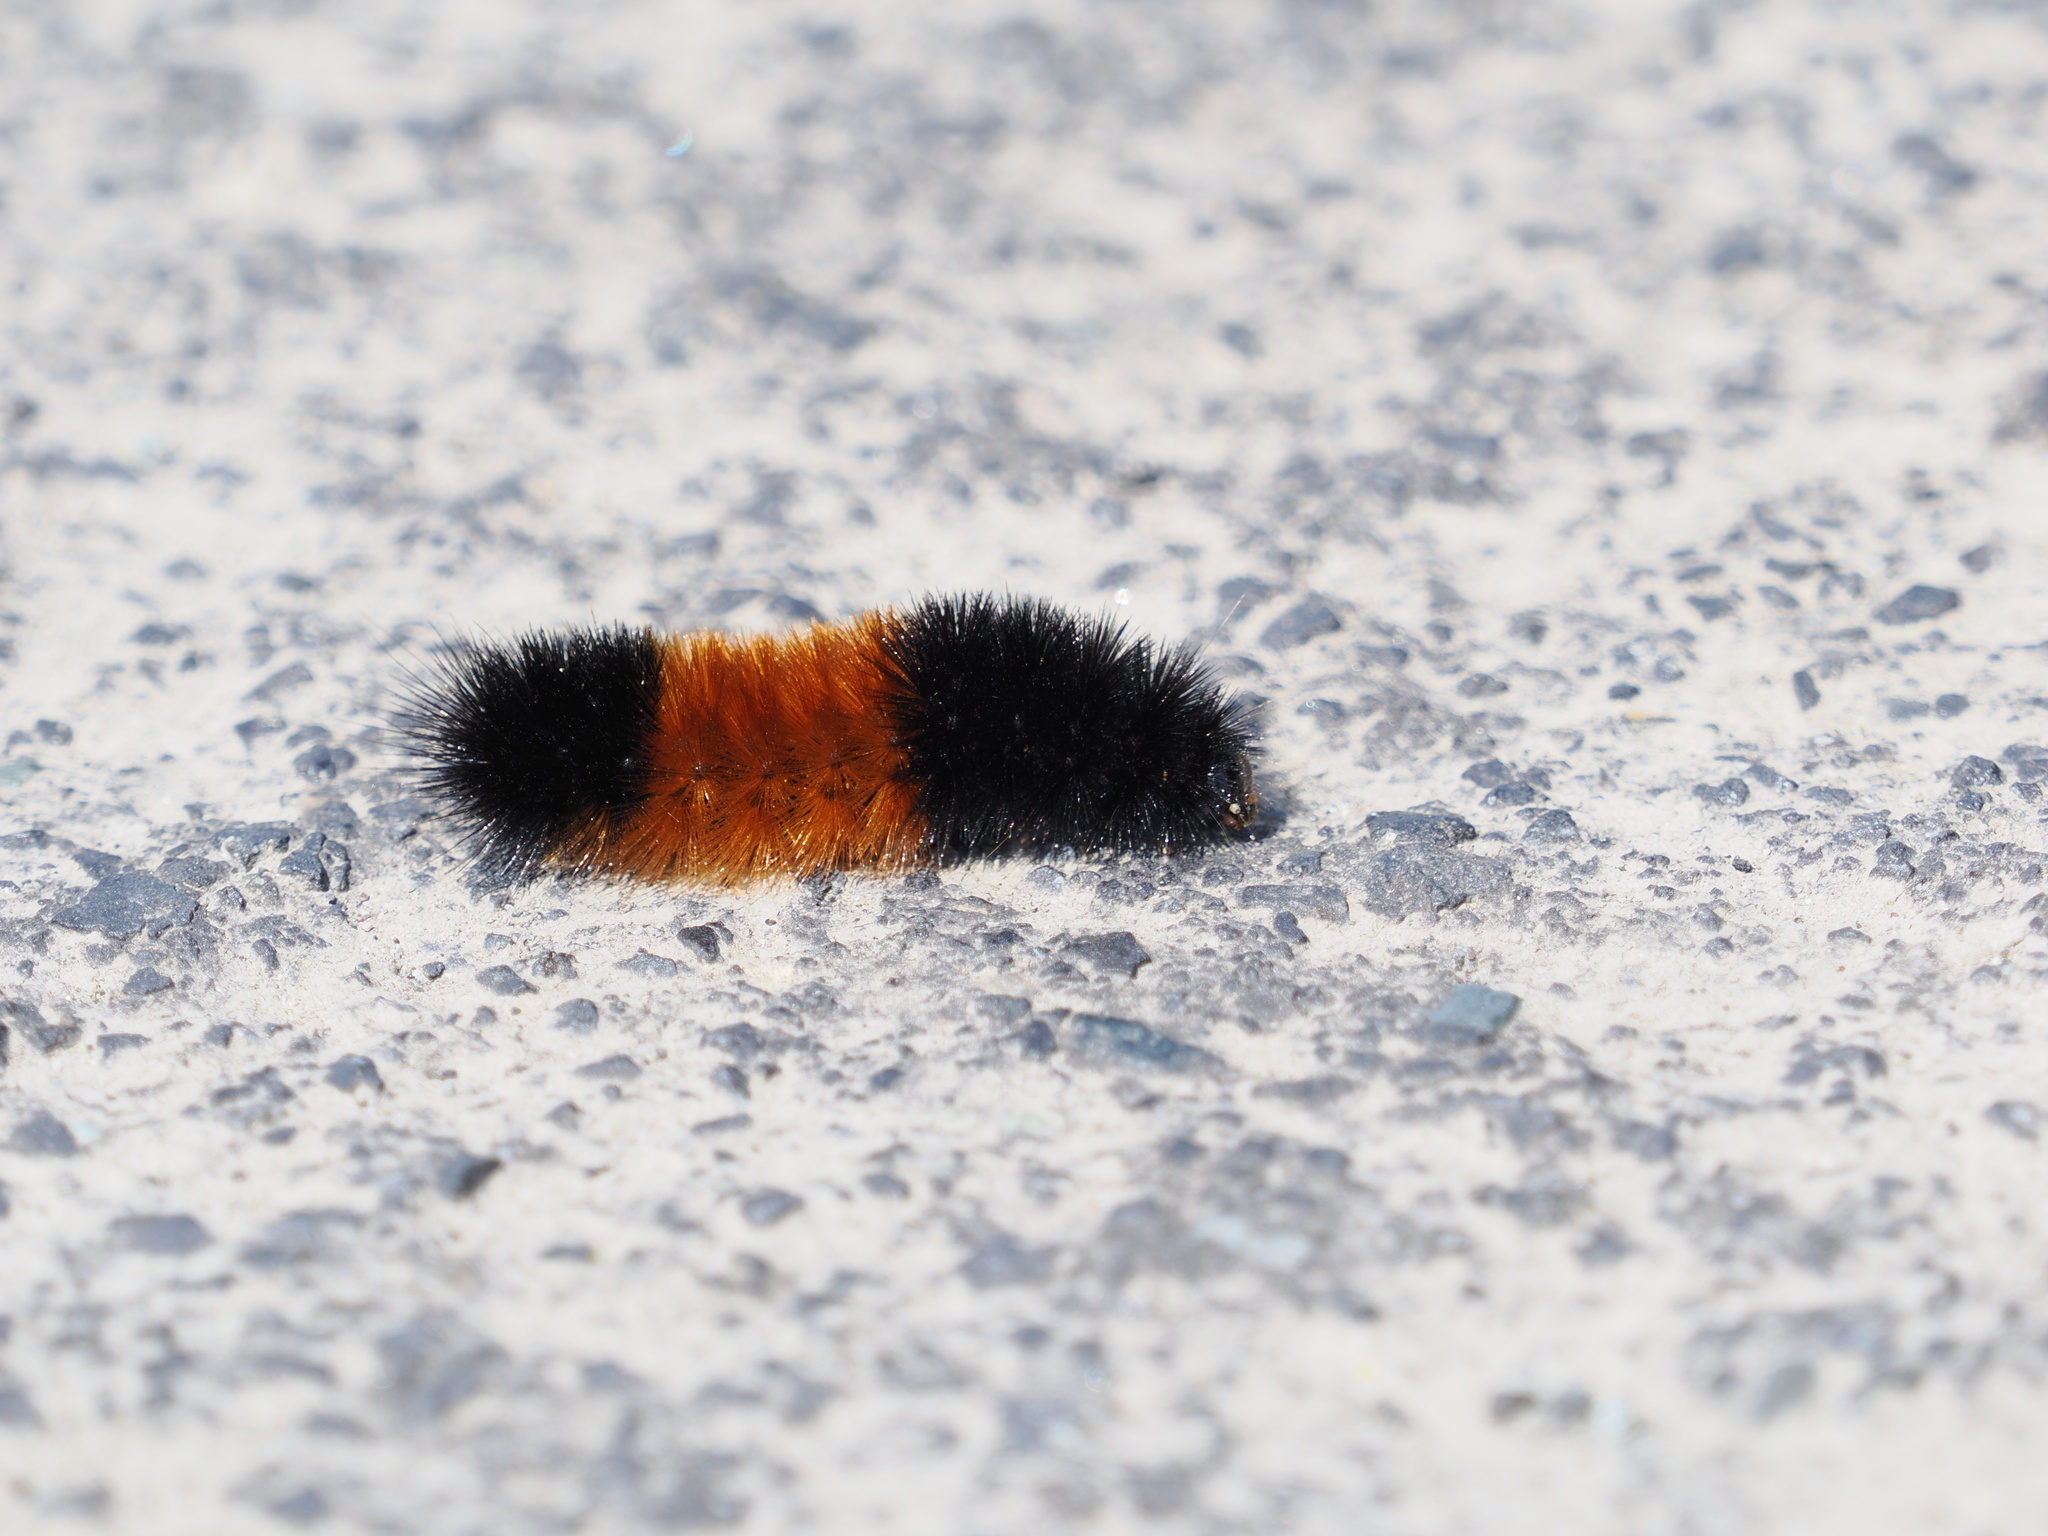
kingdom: Animalia
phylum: Arthropoda
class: Insecta
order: Lepidoptera
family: Erebidae
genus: Pyrrharctia
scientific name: Pyrrharctia isabella
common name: Isabella tiger moth
